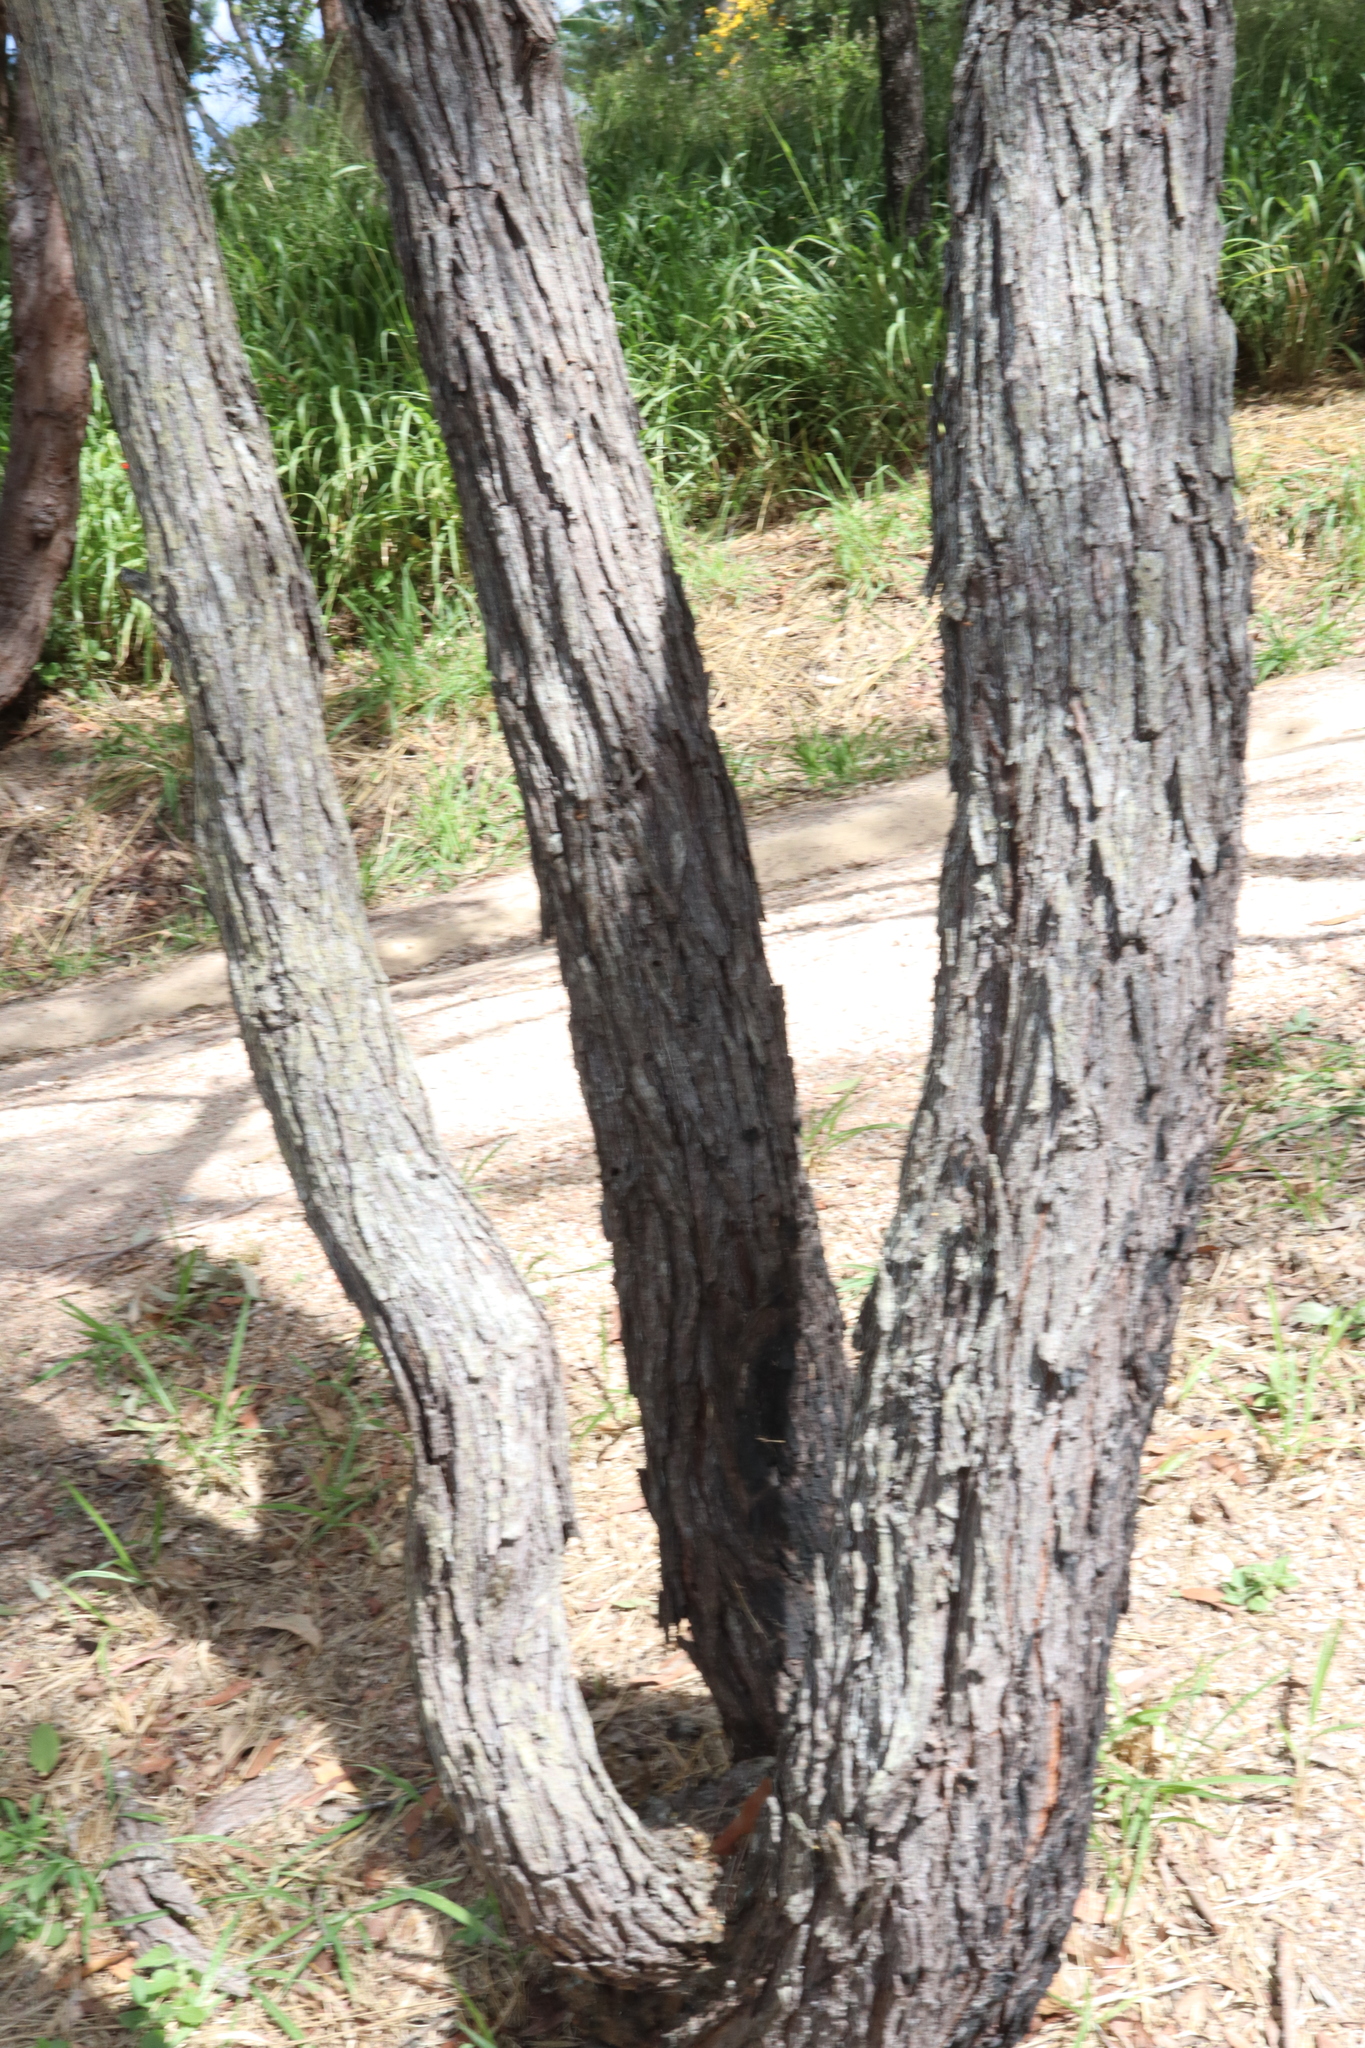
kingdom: Plantae
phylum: Tracheophyta
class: Magnoliopsida
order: Fabales
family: Fabaceae
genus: Acacia
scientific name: Acacia flavescens
